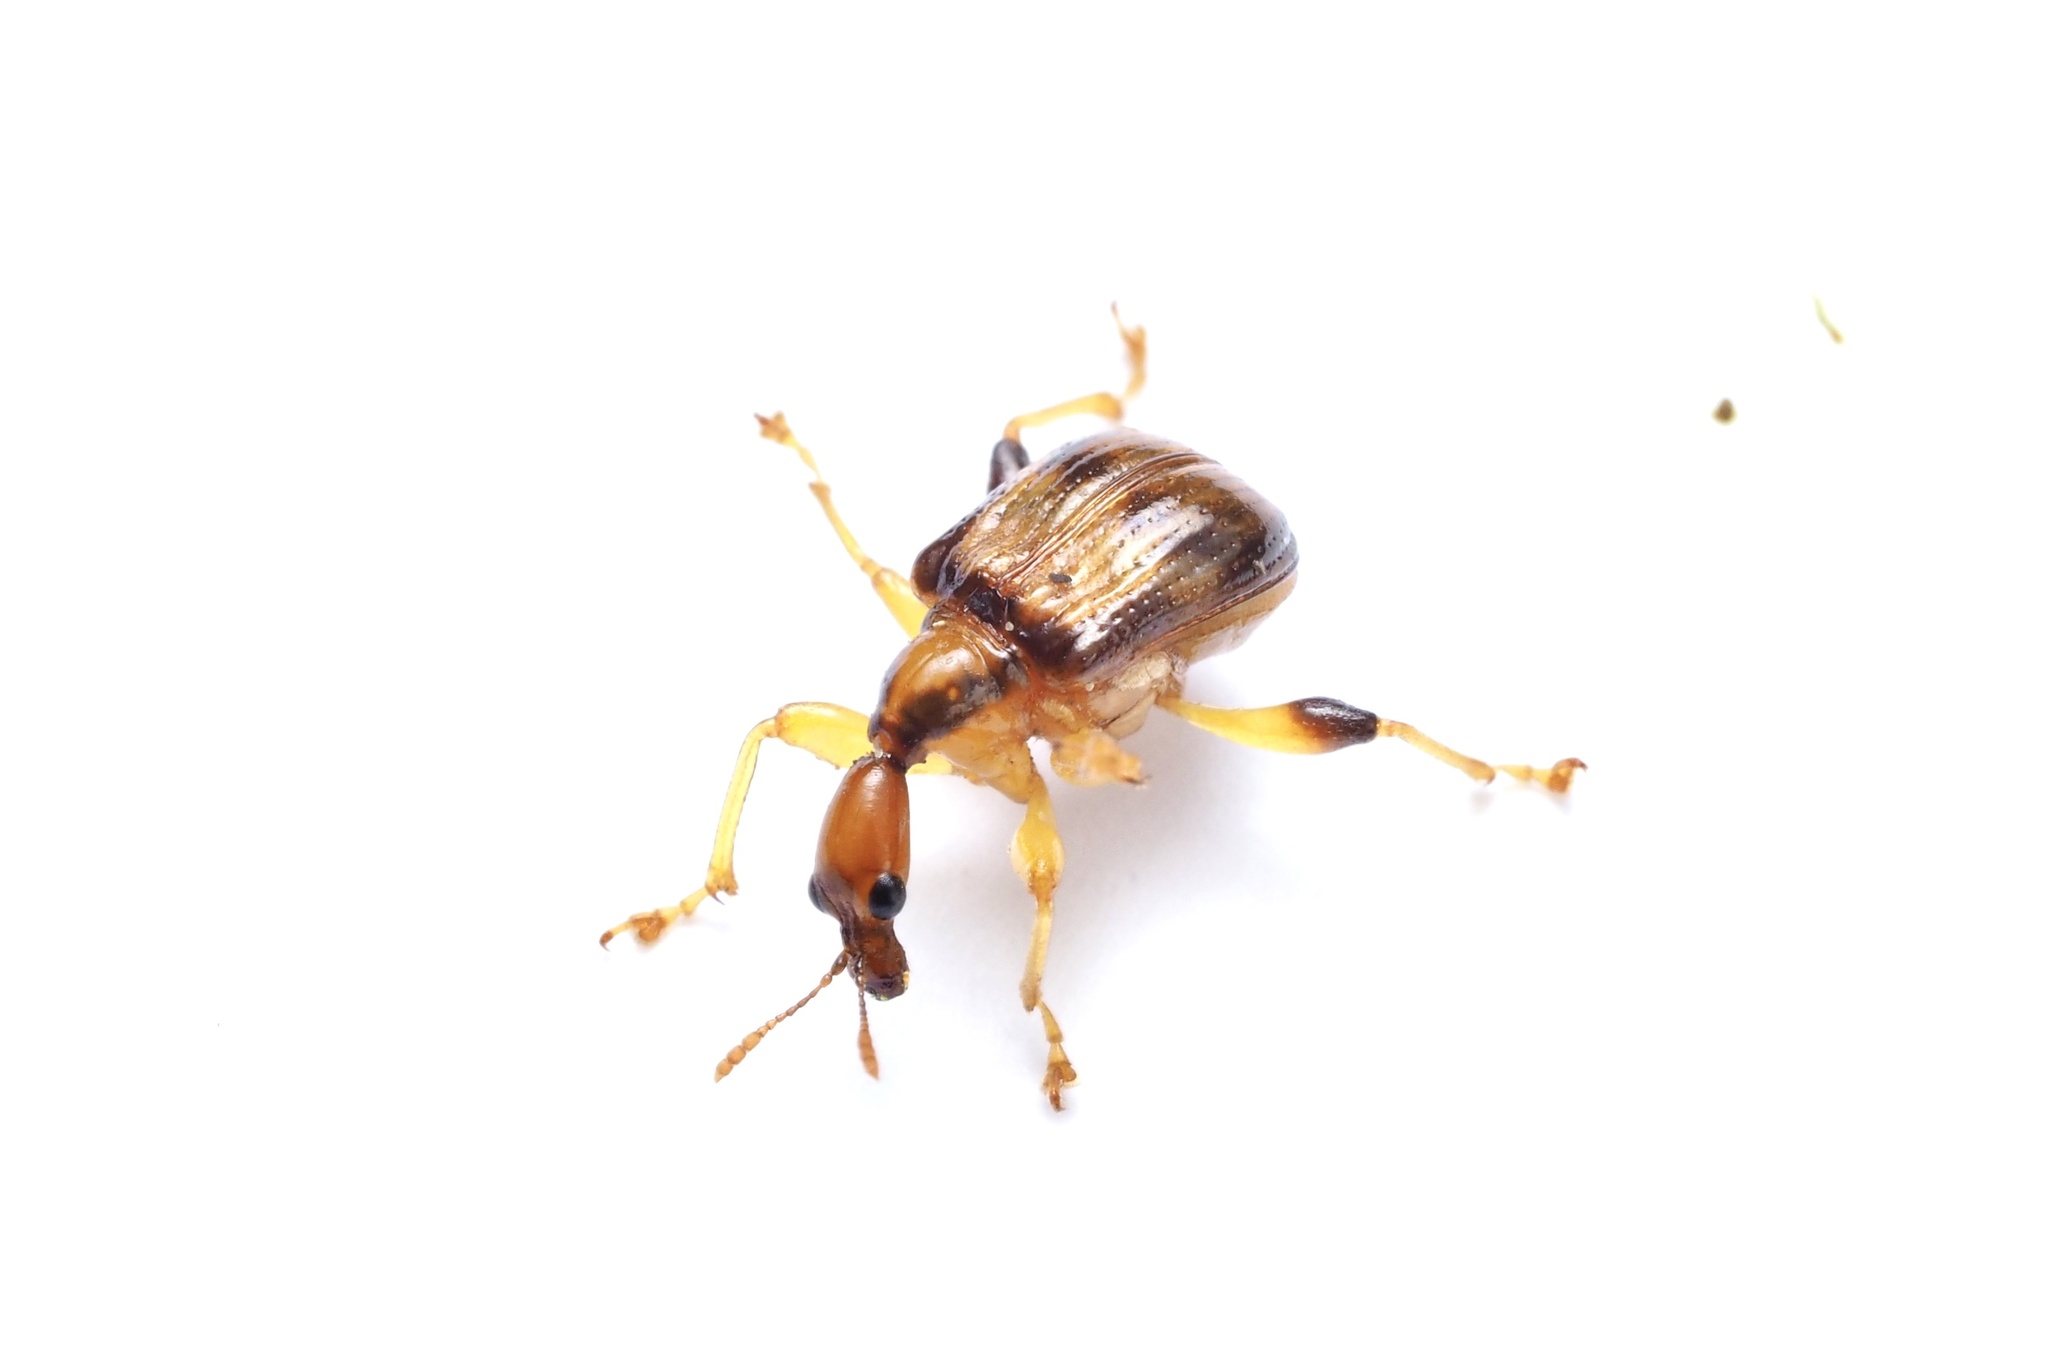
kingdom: Animalia
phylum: Arthropoda
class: Insecta
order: Coleoptera
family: Attelabidae
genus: Leptapoderus
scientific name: Leptapoderus balteatus
